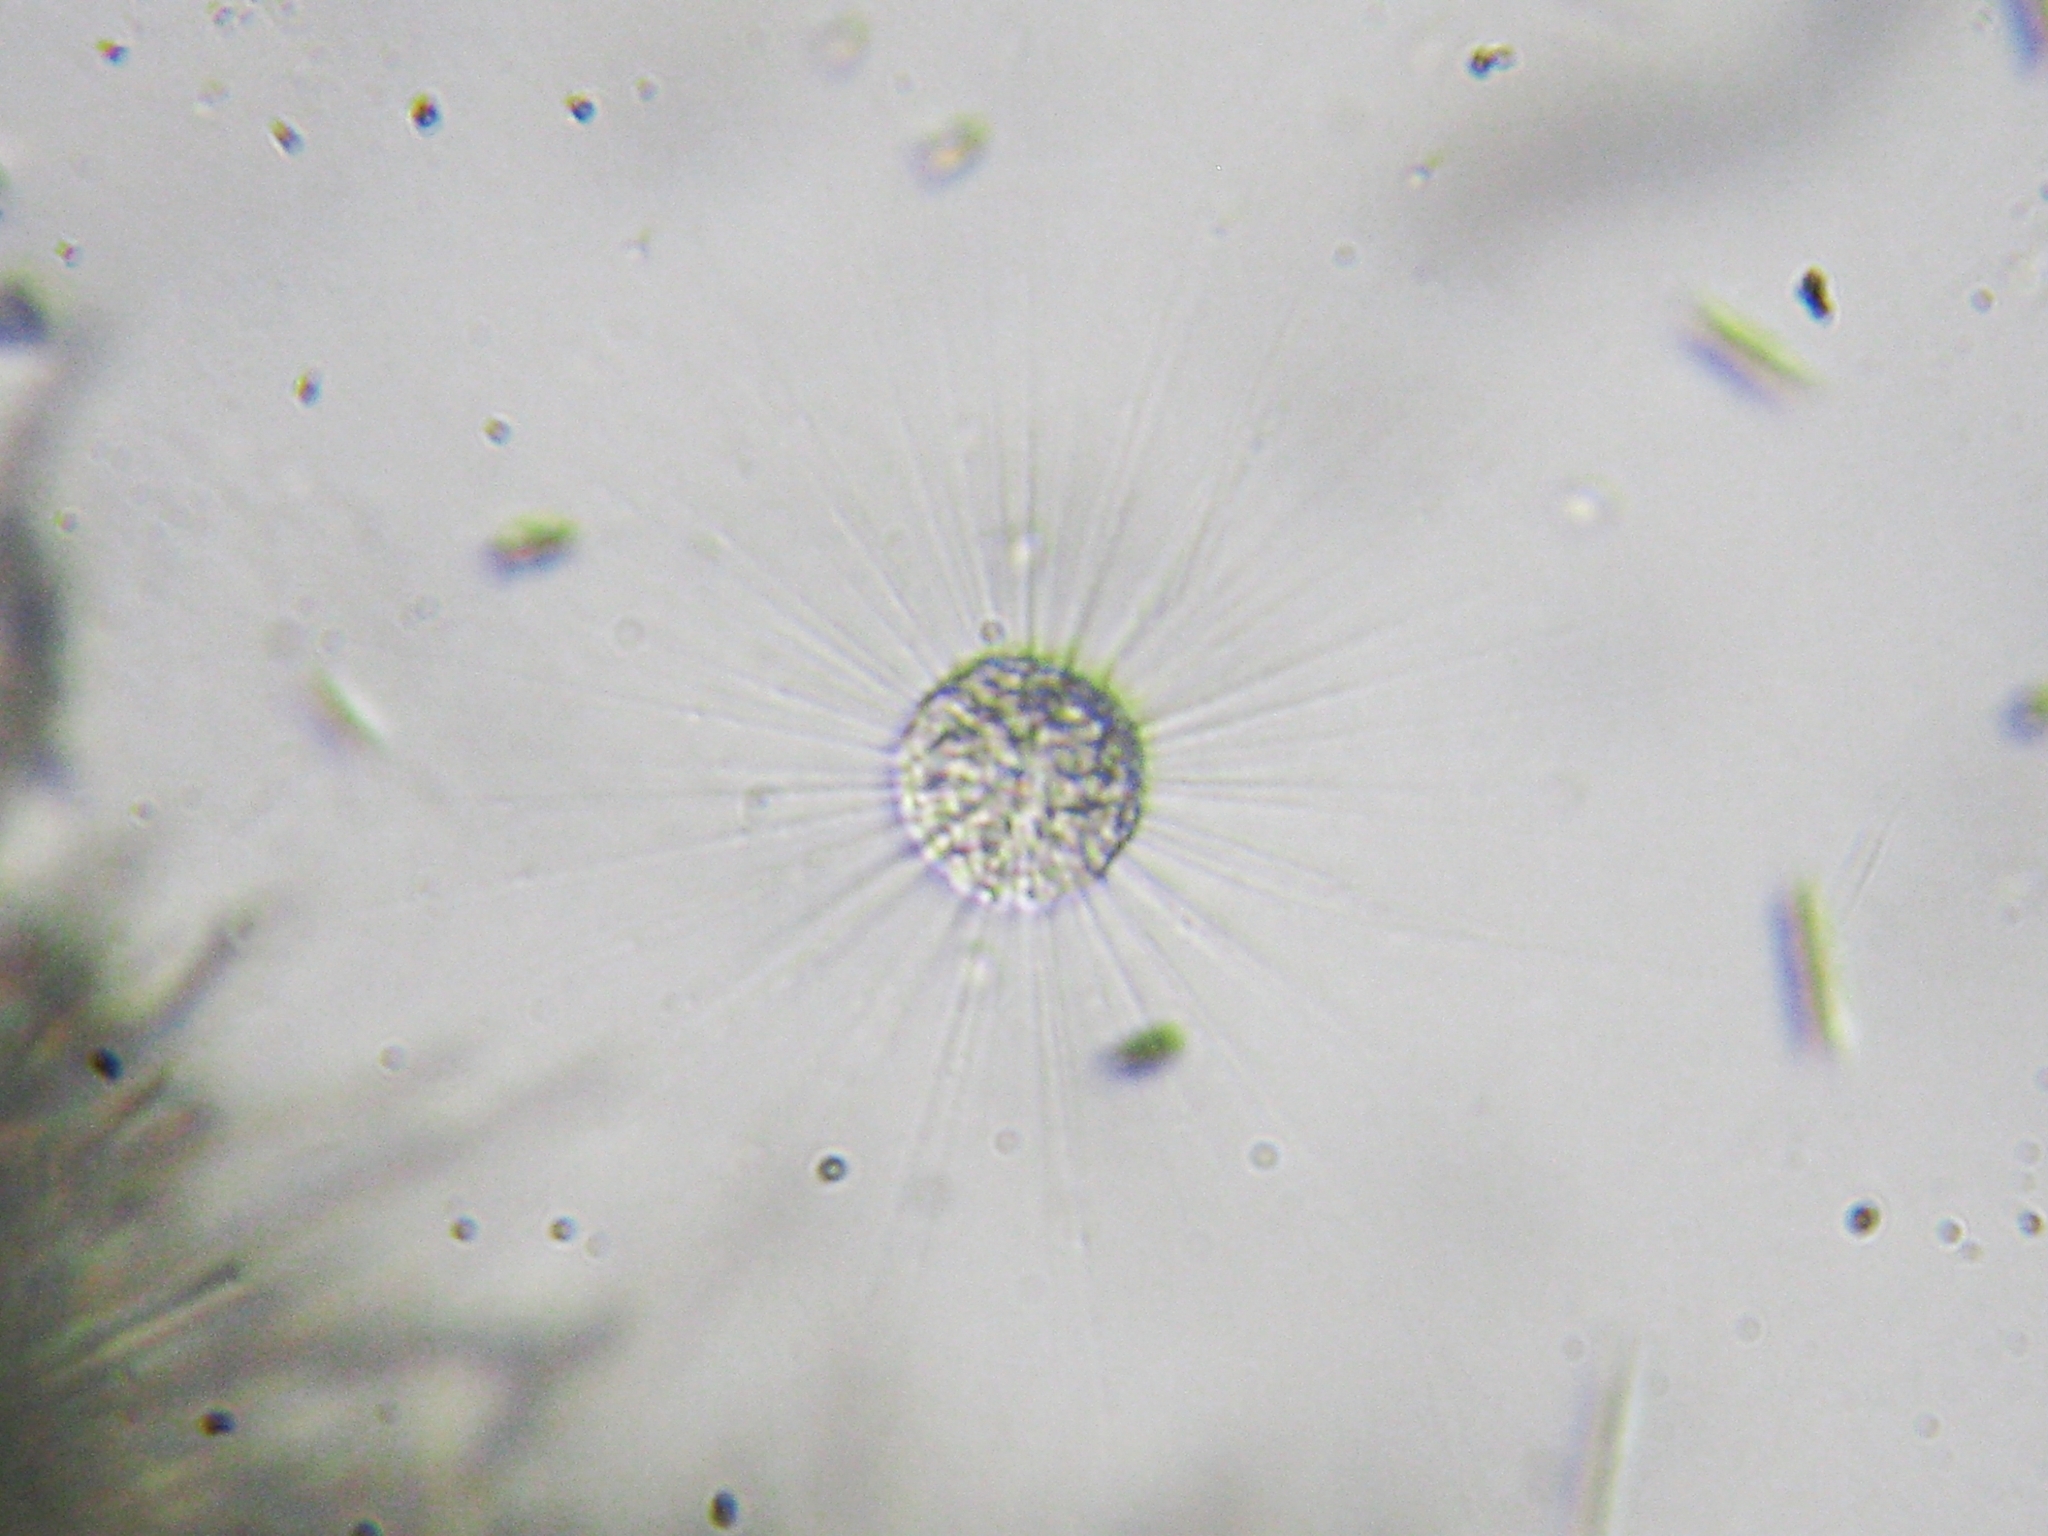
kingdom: Chromista
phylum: Ochrophyta
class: Raphidophyceae
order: Actinophryida
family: Actinophryidae
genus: Actinophrys
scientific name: Actinophrys
